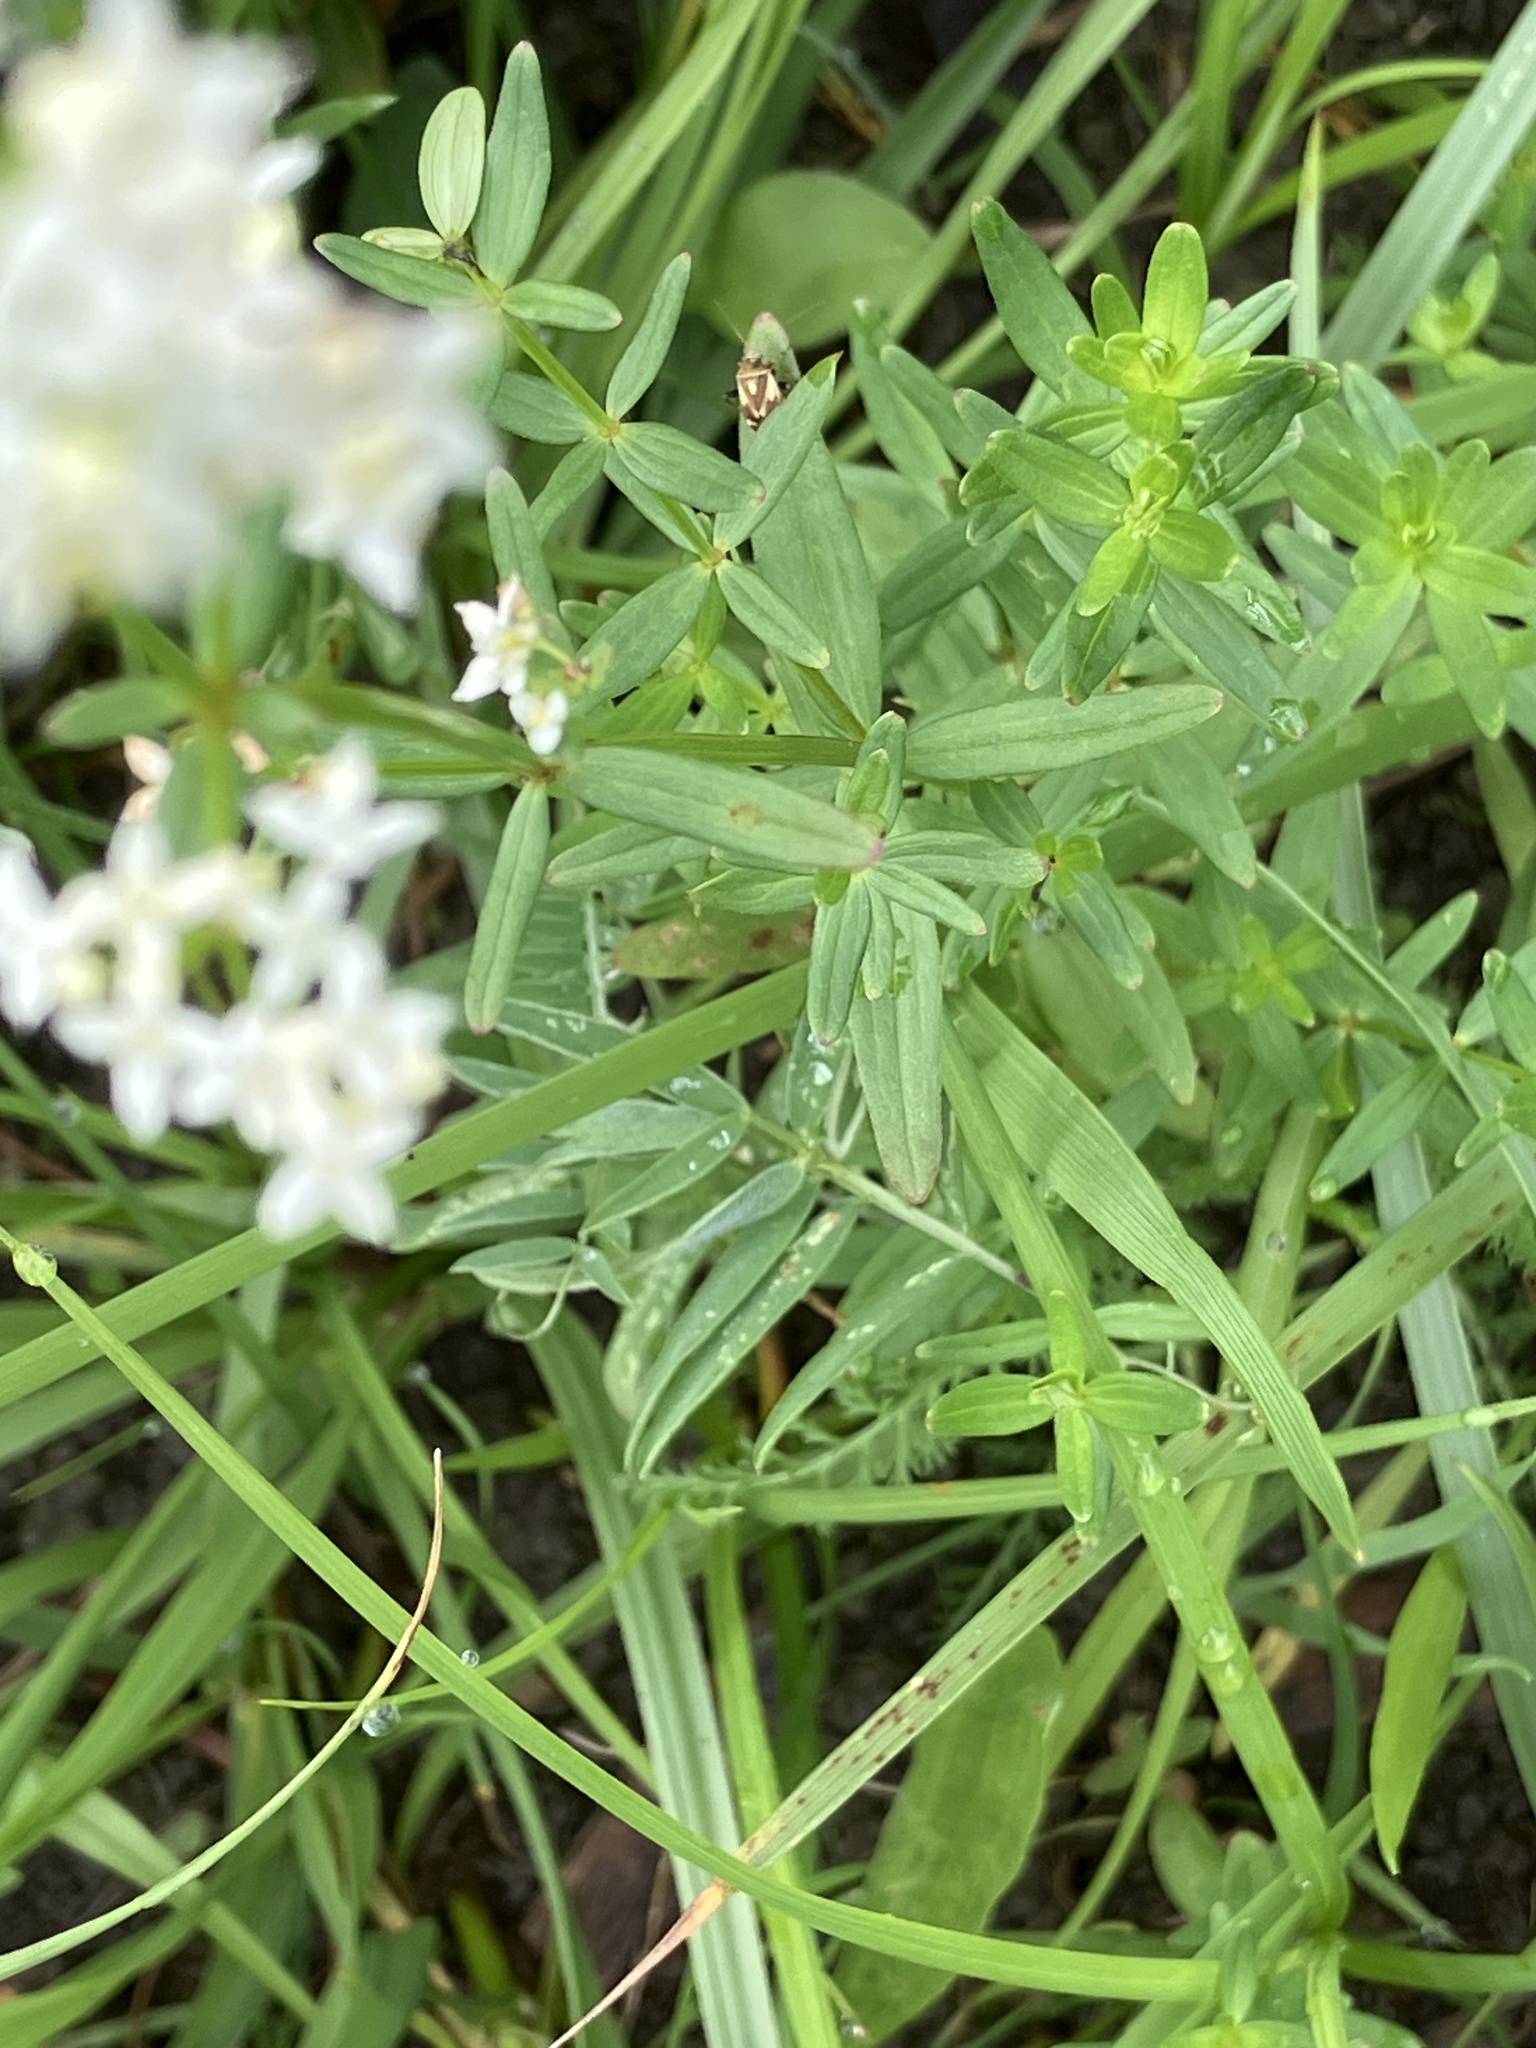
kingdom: Plantae
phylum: Tracheophyta
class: Magnoliopsida
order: Gentianales
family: Rubiaceae
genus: Galium
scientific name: Galium boreale
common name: Northern bedstraw
